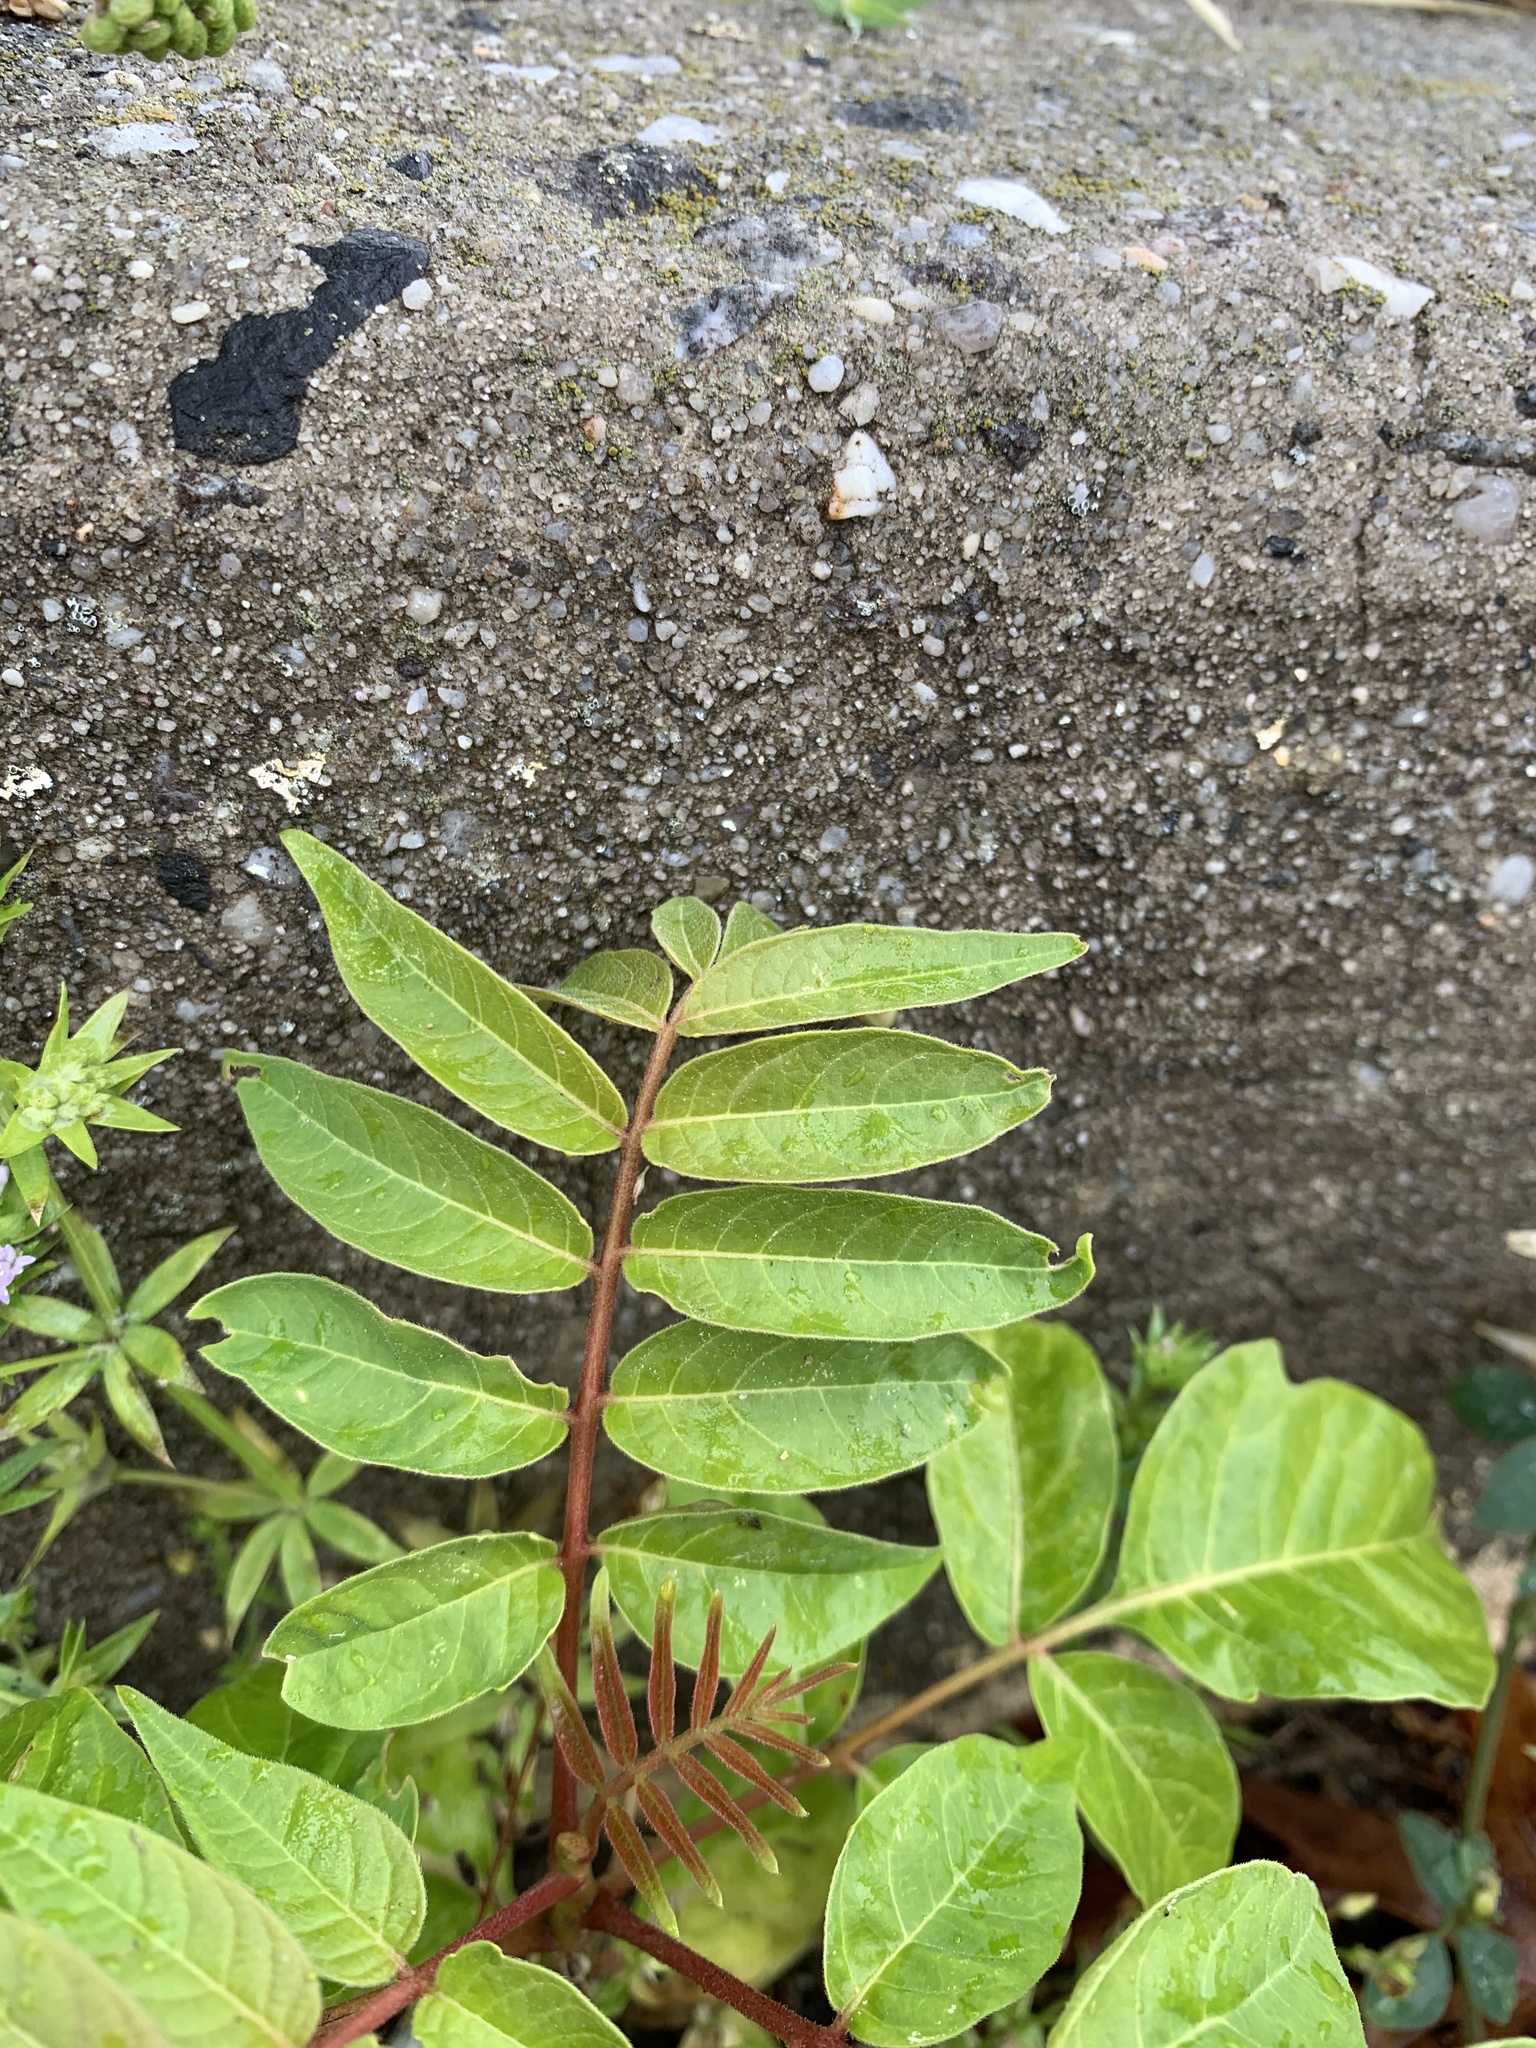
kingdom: Plantae
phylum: Tracheophyta
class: Magnoliopsida
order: Sapindales
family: Simaroubaceae
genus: Ailanthus
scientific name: Ailanthus altissima
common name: Tree-of-heaven
